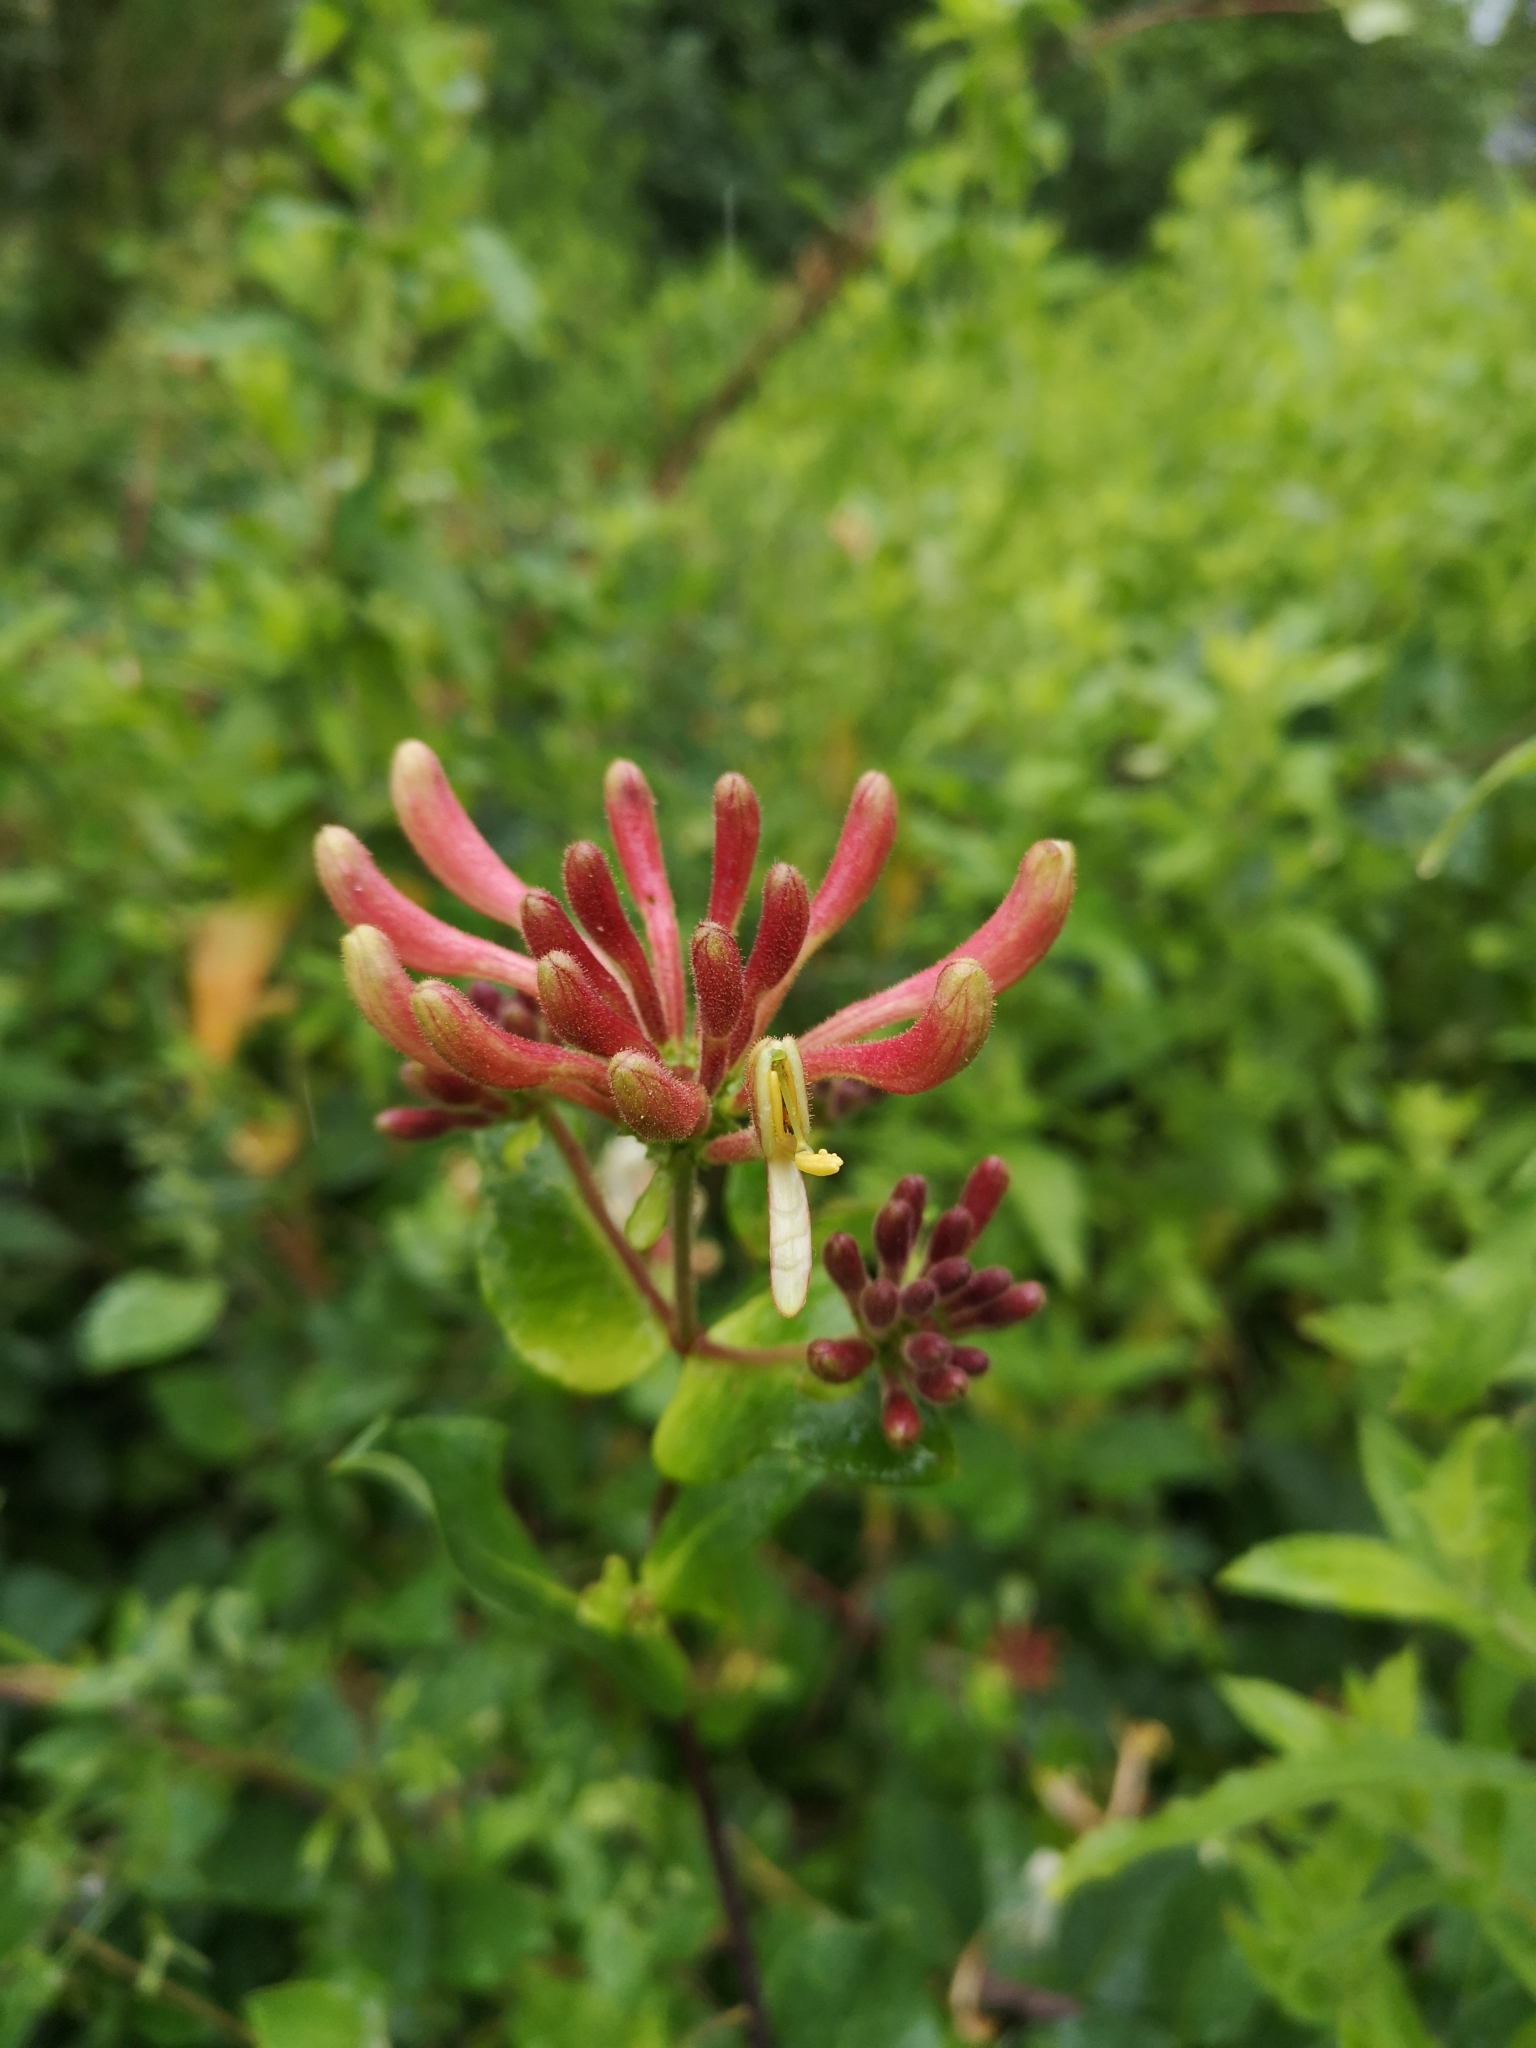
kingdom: Plantae
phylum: Tracheophyta
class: Magnoliopsida
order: Dipsacales
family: Caprifoliaceae
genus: Lonicera
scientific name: Lonicera periclymenum
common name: European honeysuckle
